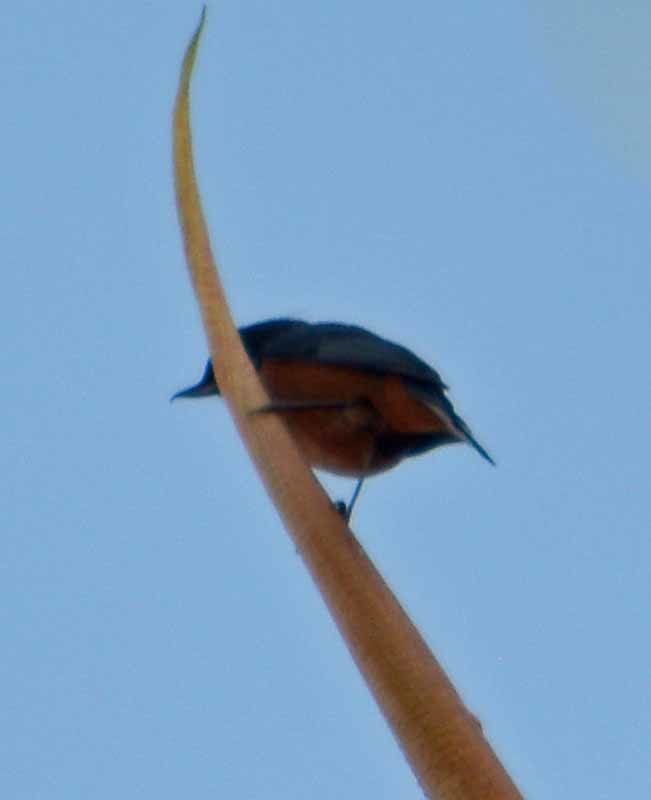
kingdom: Animalia
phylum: Chordata
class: Aves
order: Passeriformes
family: Thraupidae
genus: Diglossa
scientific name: Diglossa baritula
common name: Cinnamon-bellied flowerpiercer
